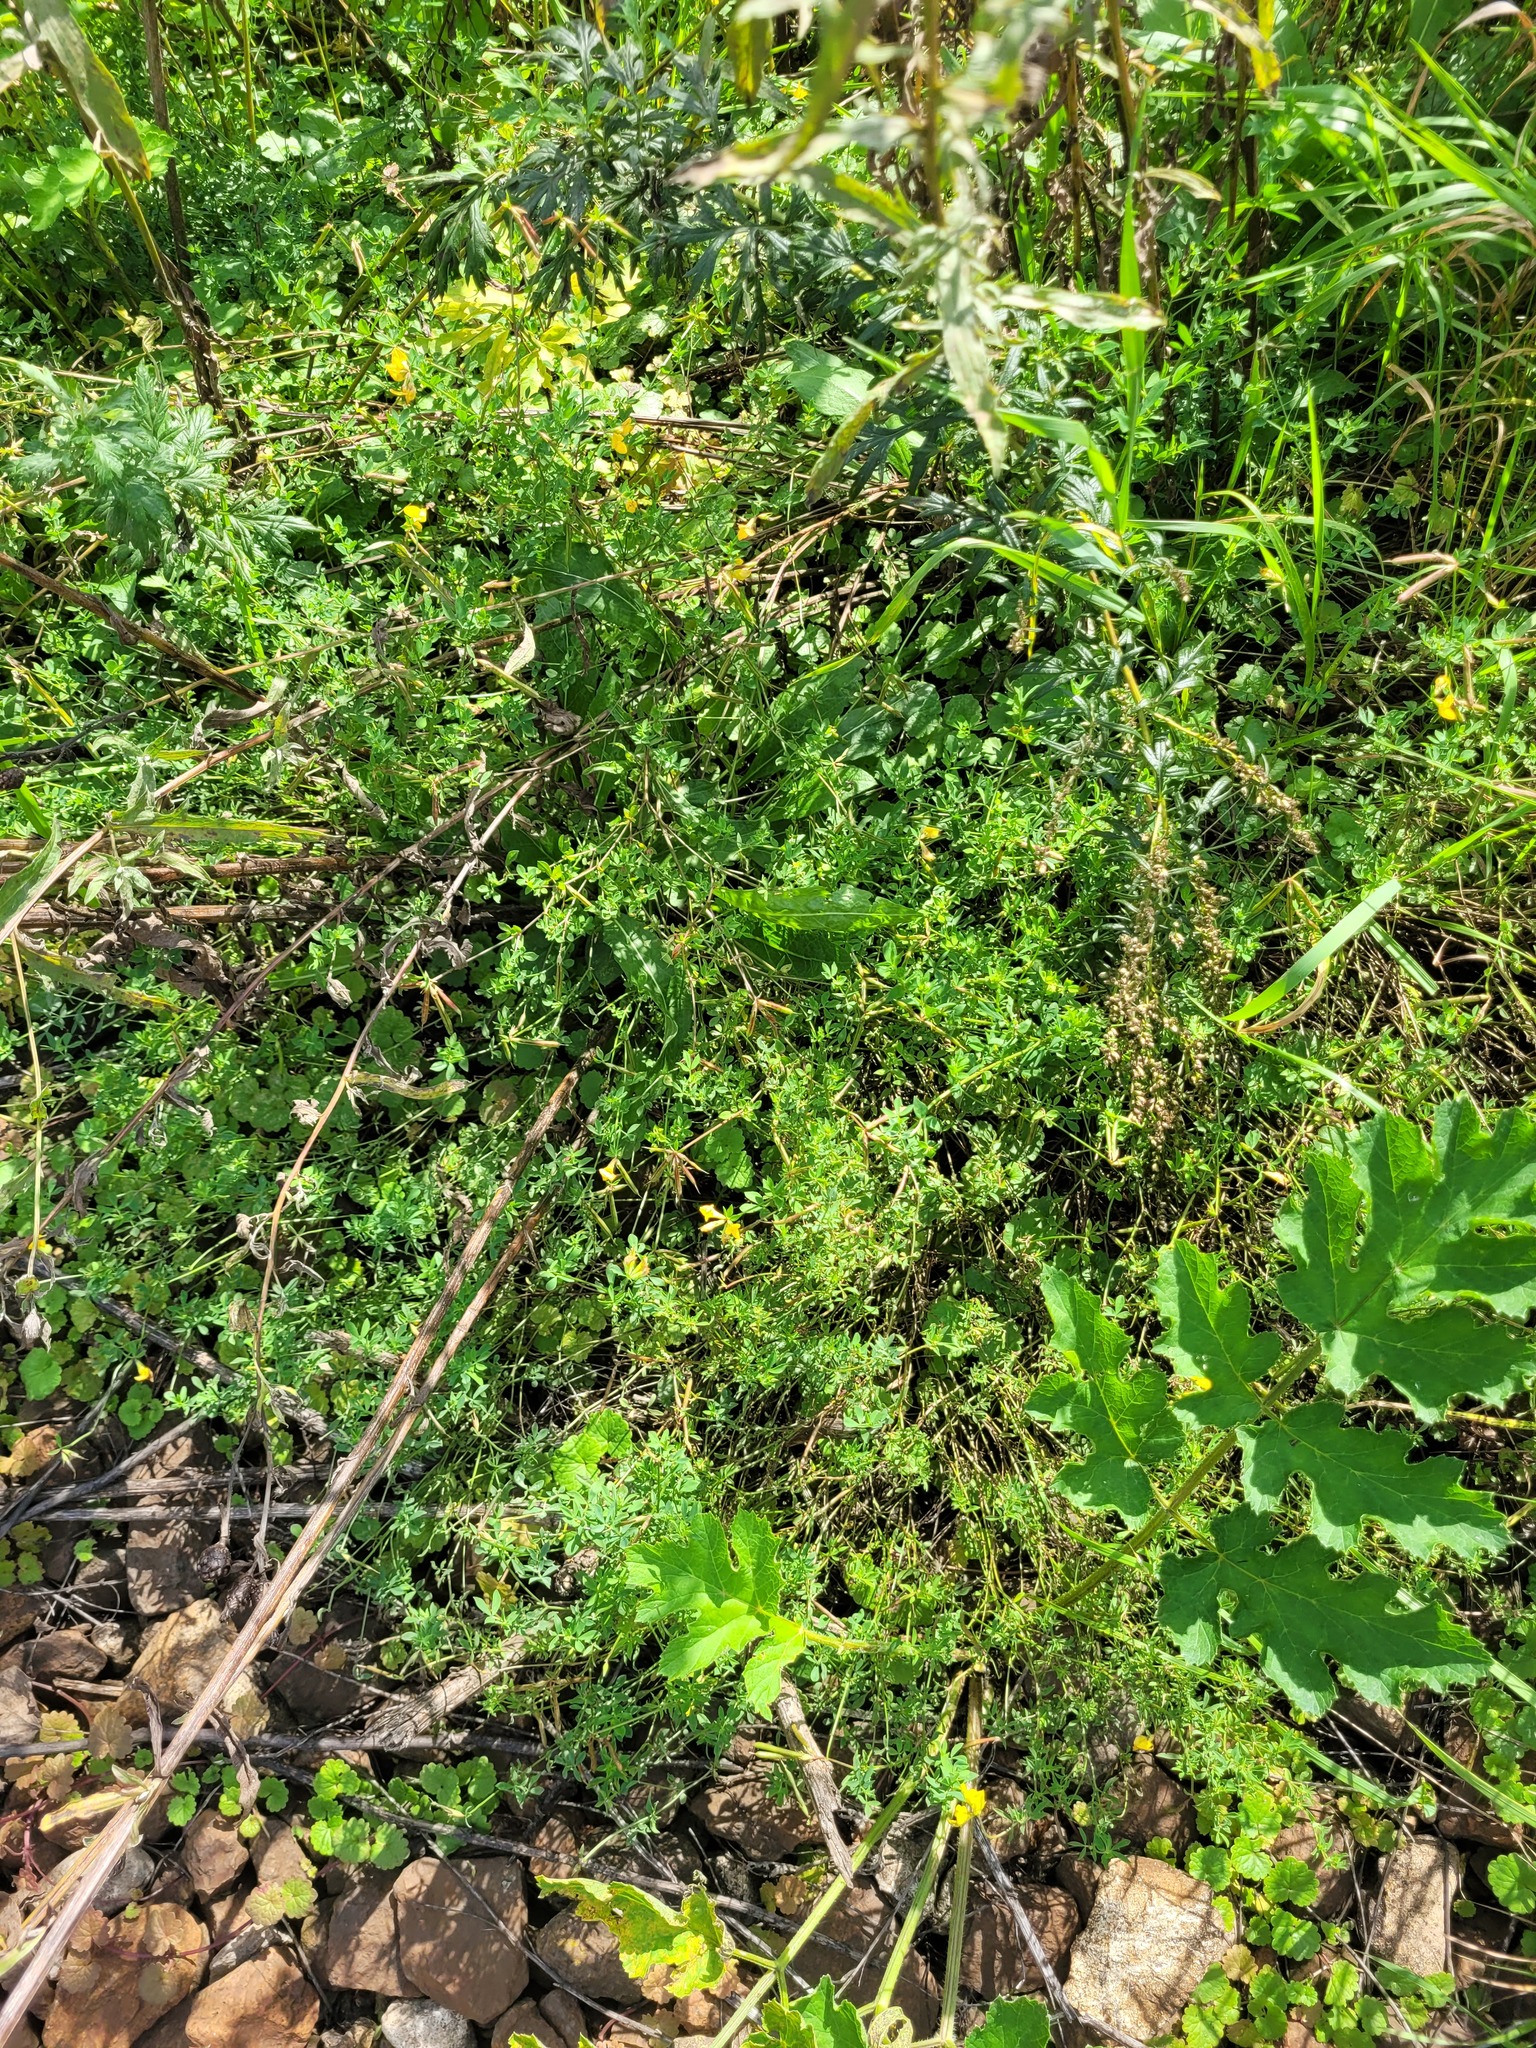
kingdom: Plantae
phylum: Tracheophyta
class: Magnoliopsida
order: Fabales
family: Fabaceae
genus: Lotus
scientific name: Lotus corniculatus
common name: Common bird's-foot-trefoil
